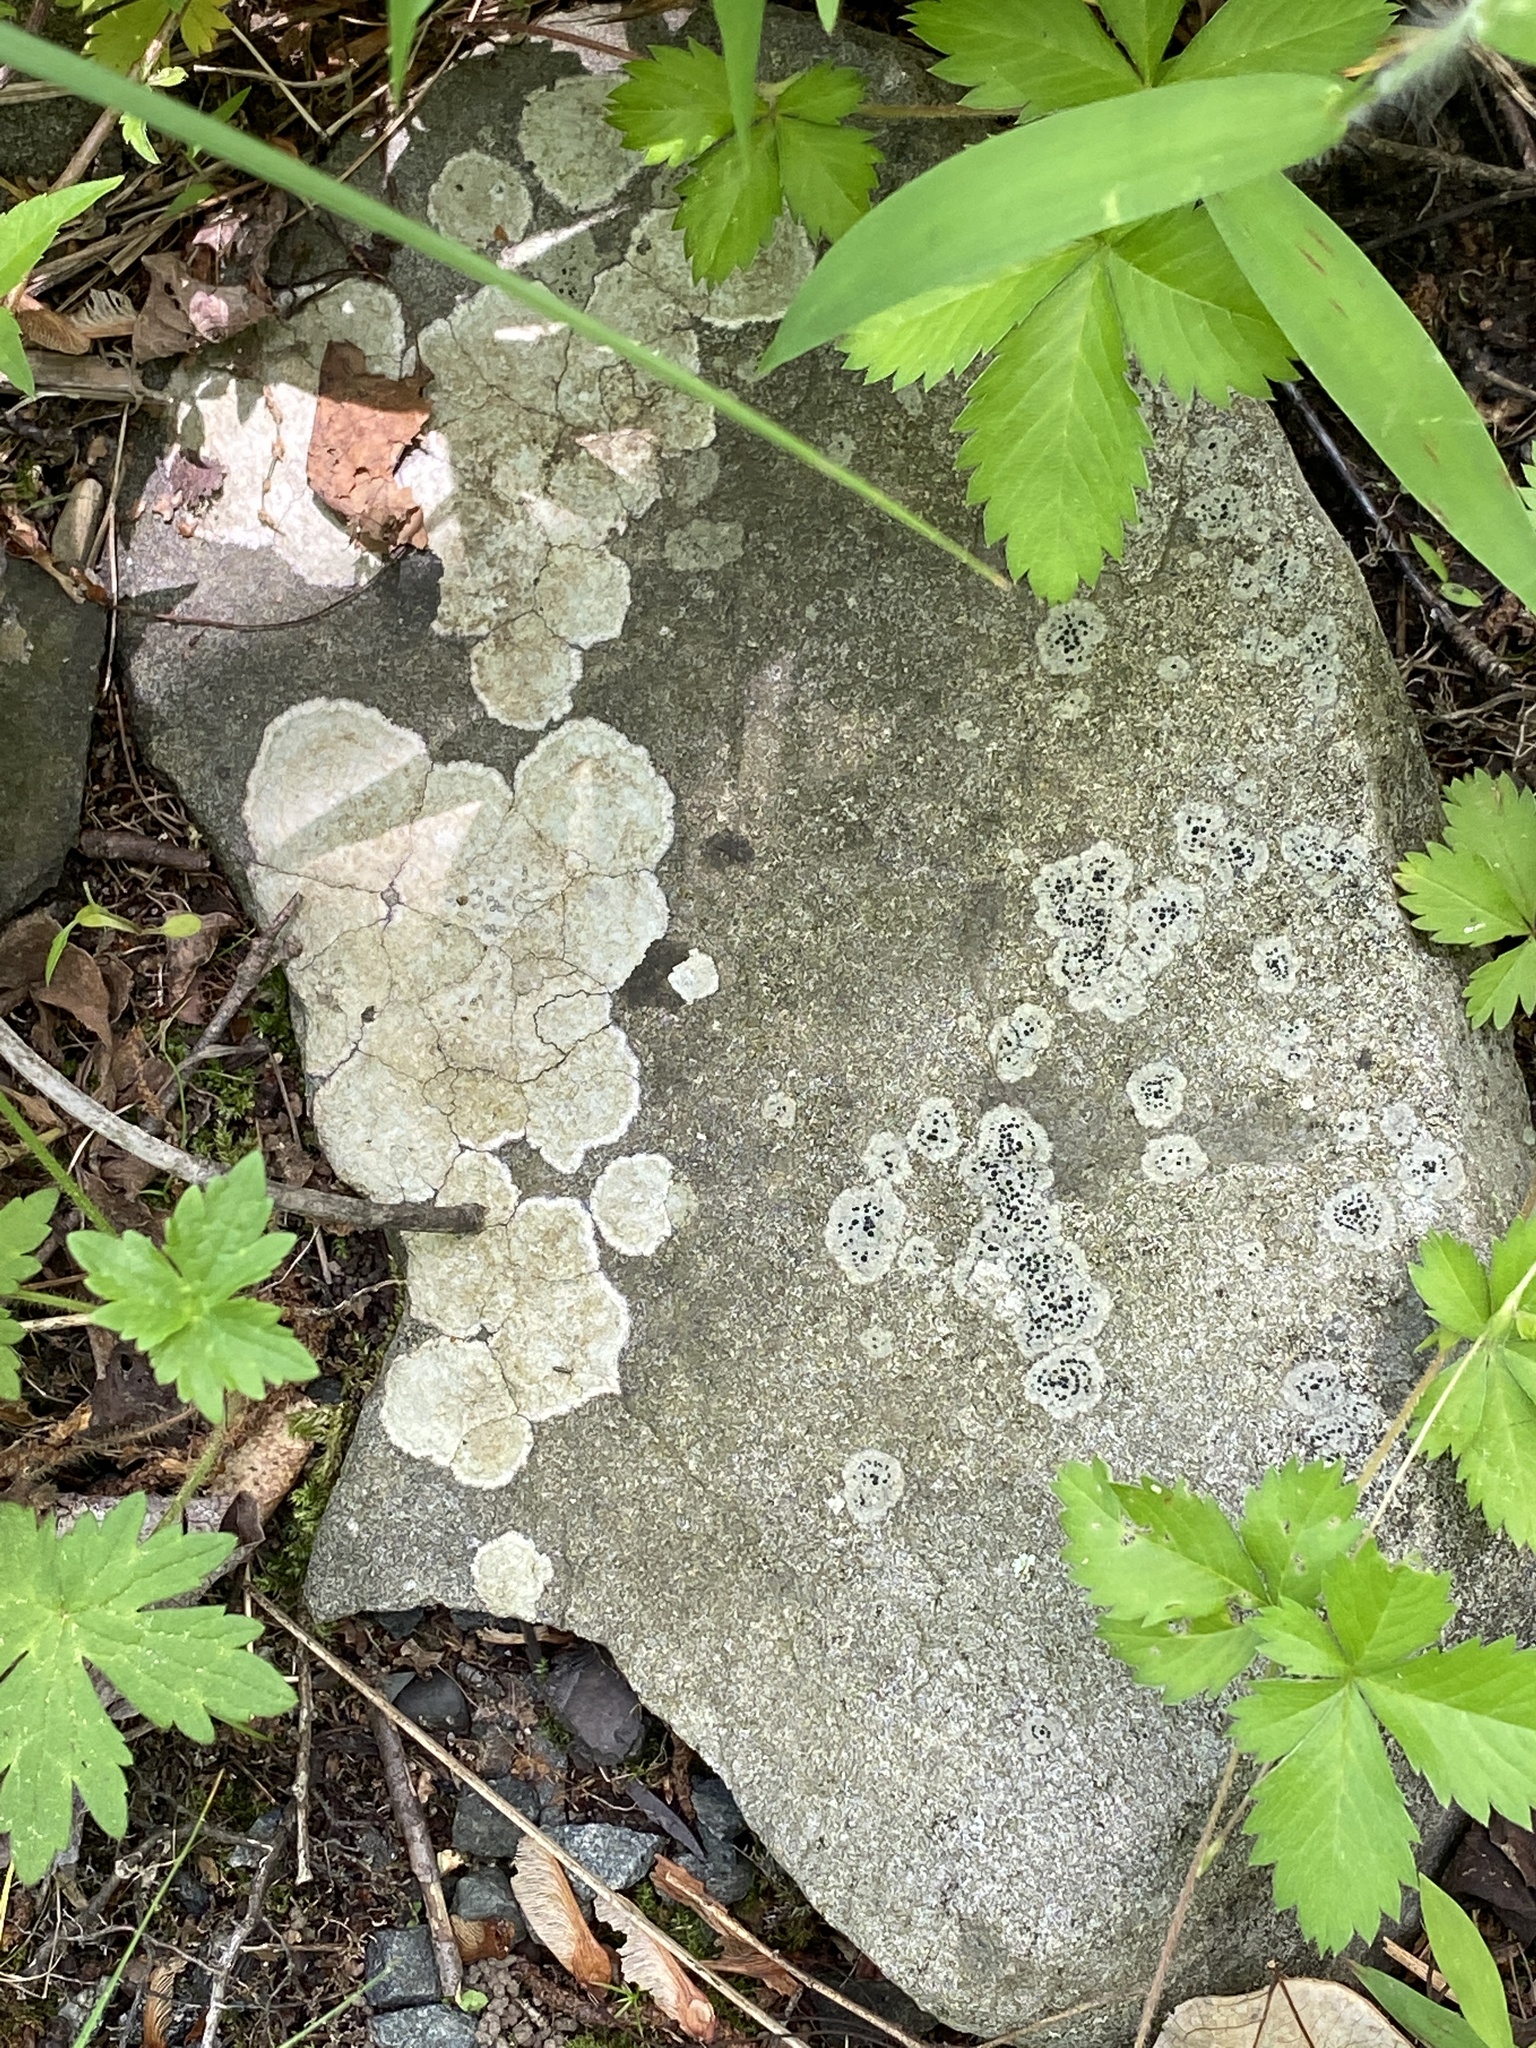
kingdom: Fungi
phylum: Ascomycota
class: Lecanoromycetes
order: Lecideales
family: Lecideaceae
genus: Porpidia
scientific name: Porpidia albocaerulescens
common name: Smokey-eyed boulder lichen
